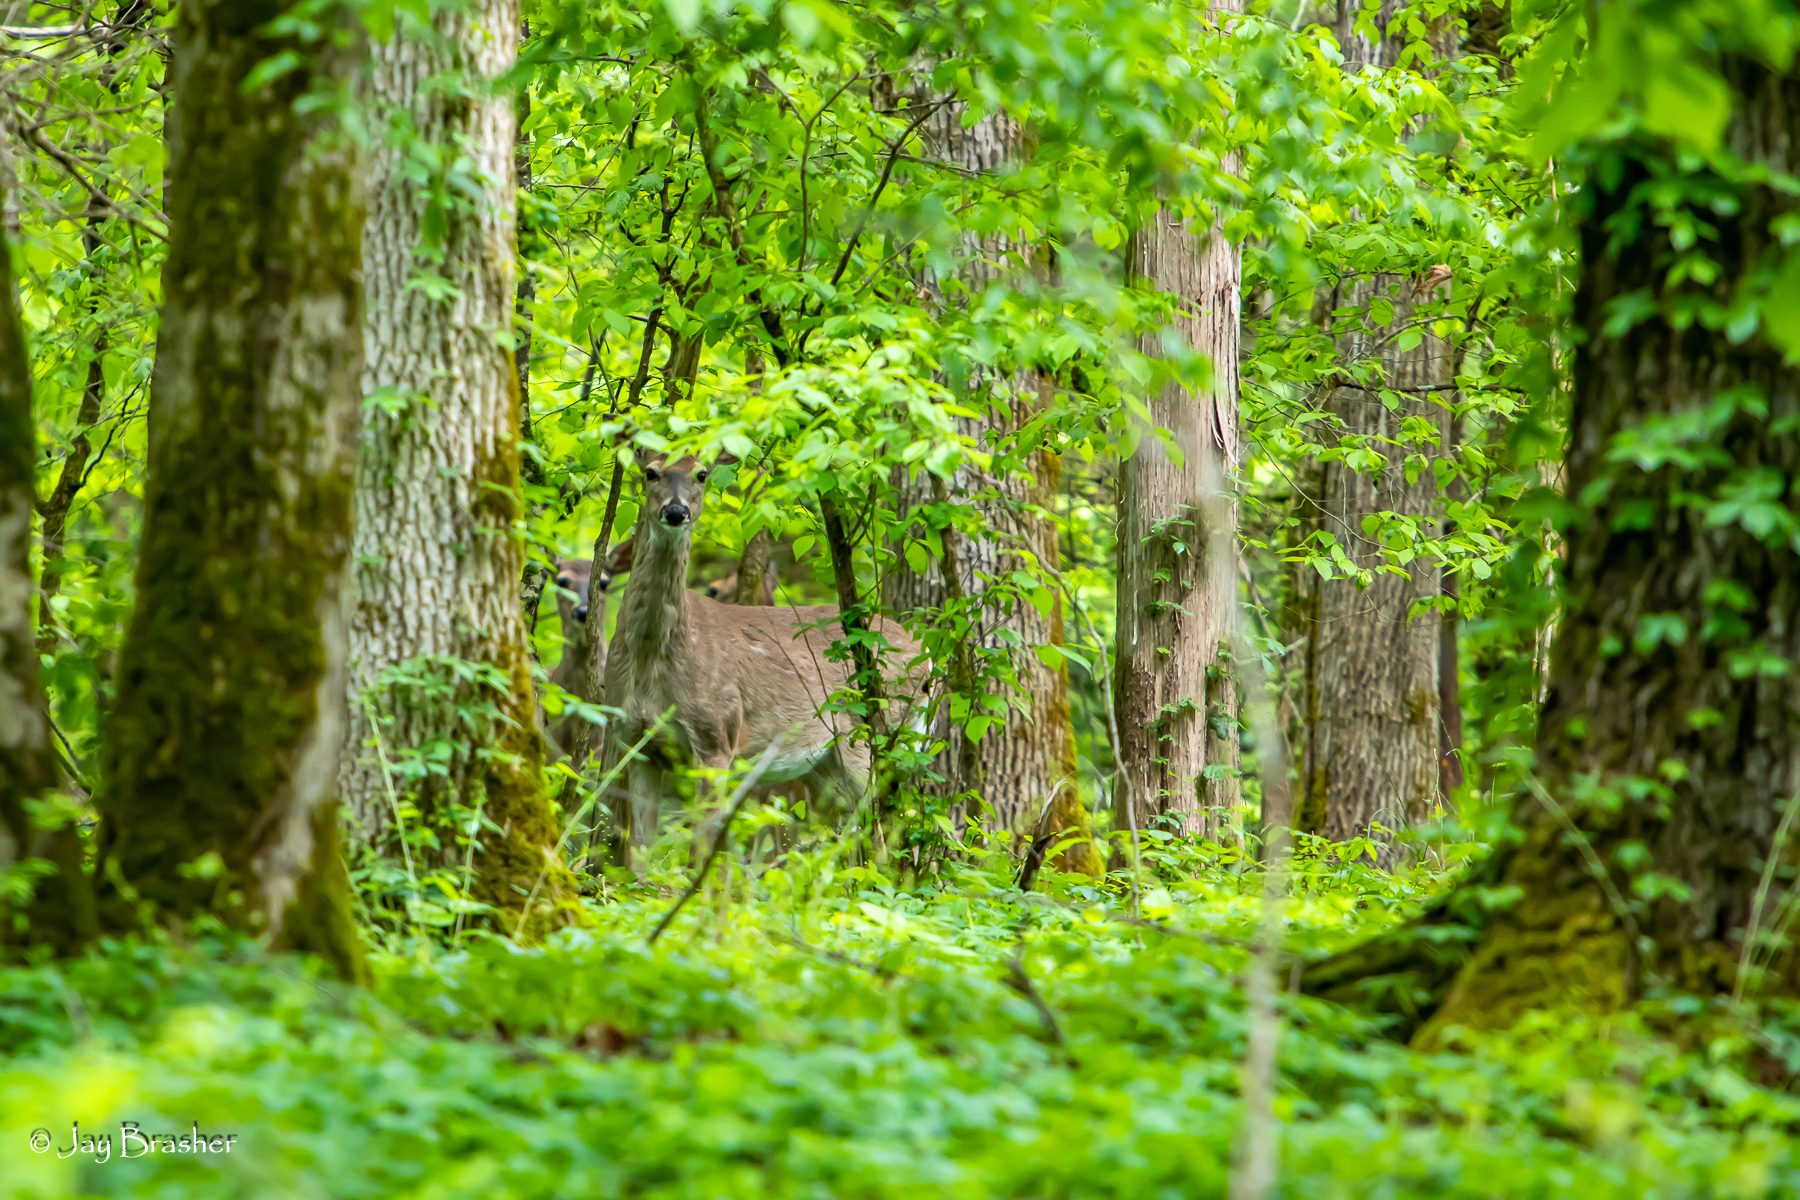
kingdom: Animalia
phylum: Chordata
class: Mammalia
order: Artiodactyla
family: Cervidae
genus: Odocoileus
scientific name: Odocoileus virginianus
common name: White-tailed deer
